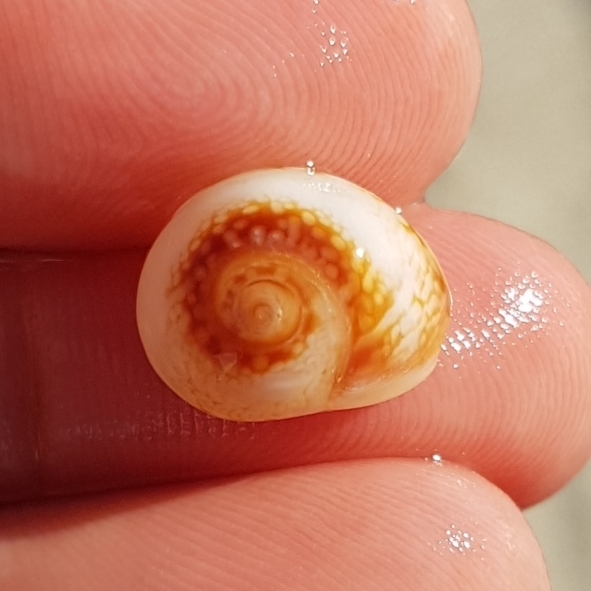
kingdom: Animalia
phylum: Mollusca
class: Gastropoda
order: Neogastropoda
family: Nassariidae
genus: Tritia
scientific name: Tritia neritea
